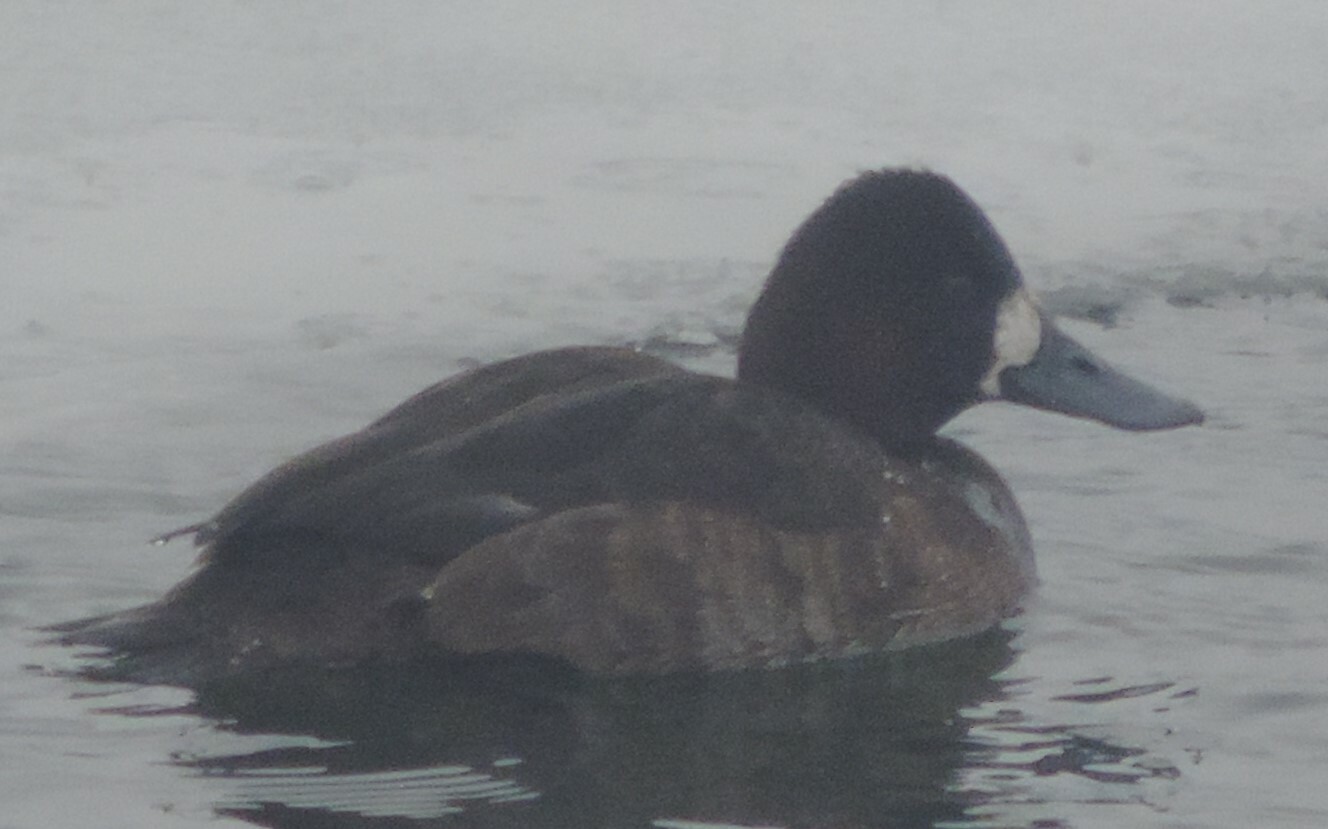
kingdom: Animalia
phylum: Chordata
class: Aves
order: Anseriformes
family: Anatidae
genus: Aythya
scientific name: Aythya marila
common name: Greater scaup
